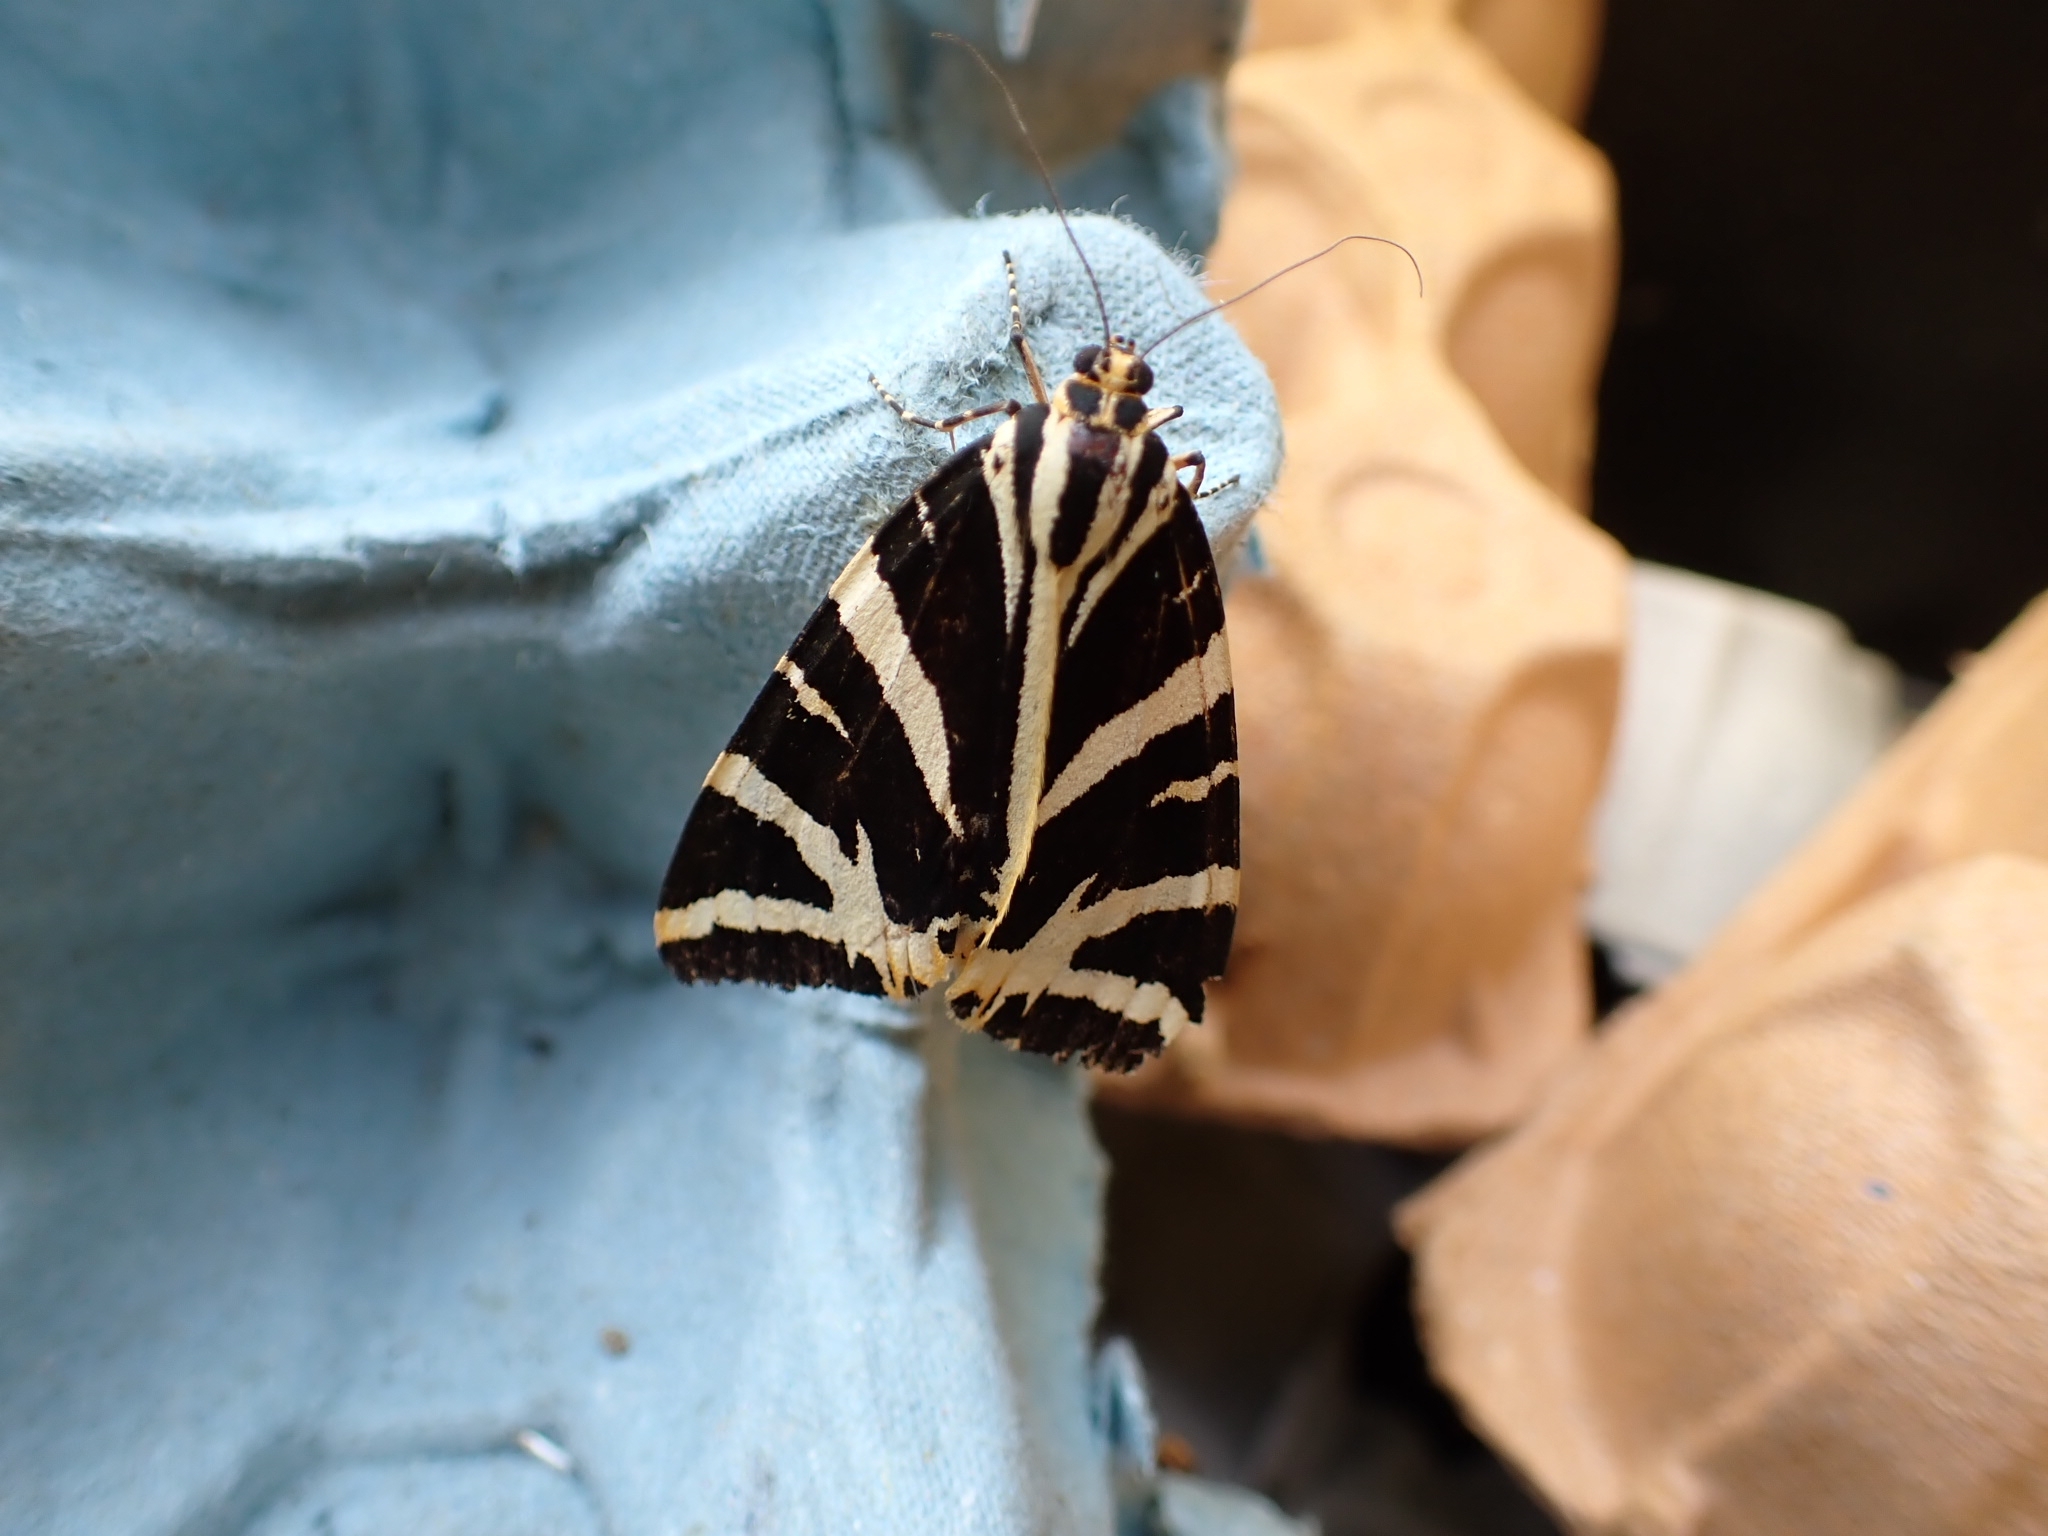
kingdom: Animalia
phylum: Arthropoda
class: Insecta
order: Lepidoptera
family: Erebidae
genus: Euplagia
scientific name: Euplagia quadripunctaria
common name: Jersey tiger
